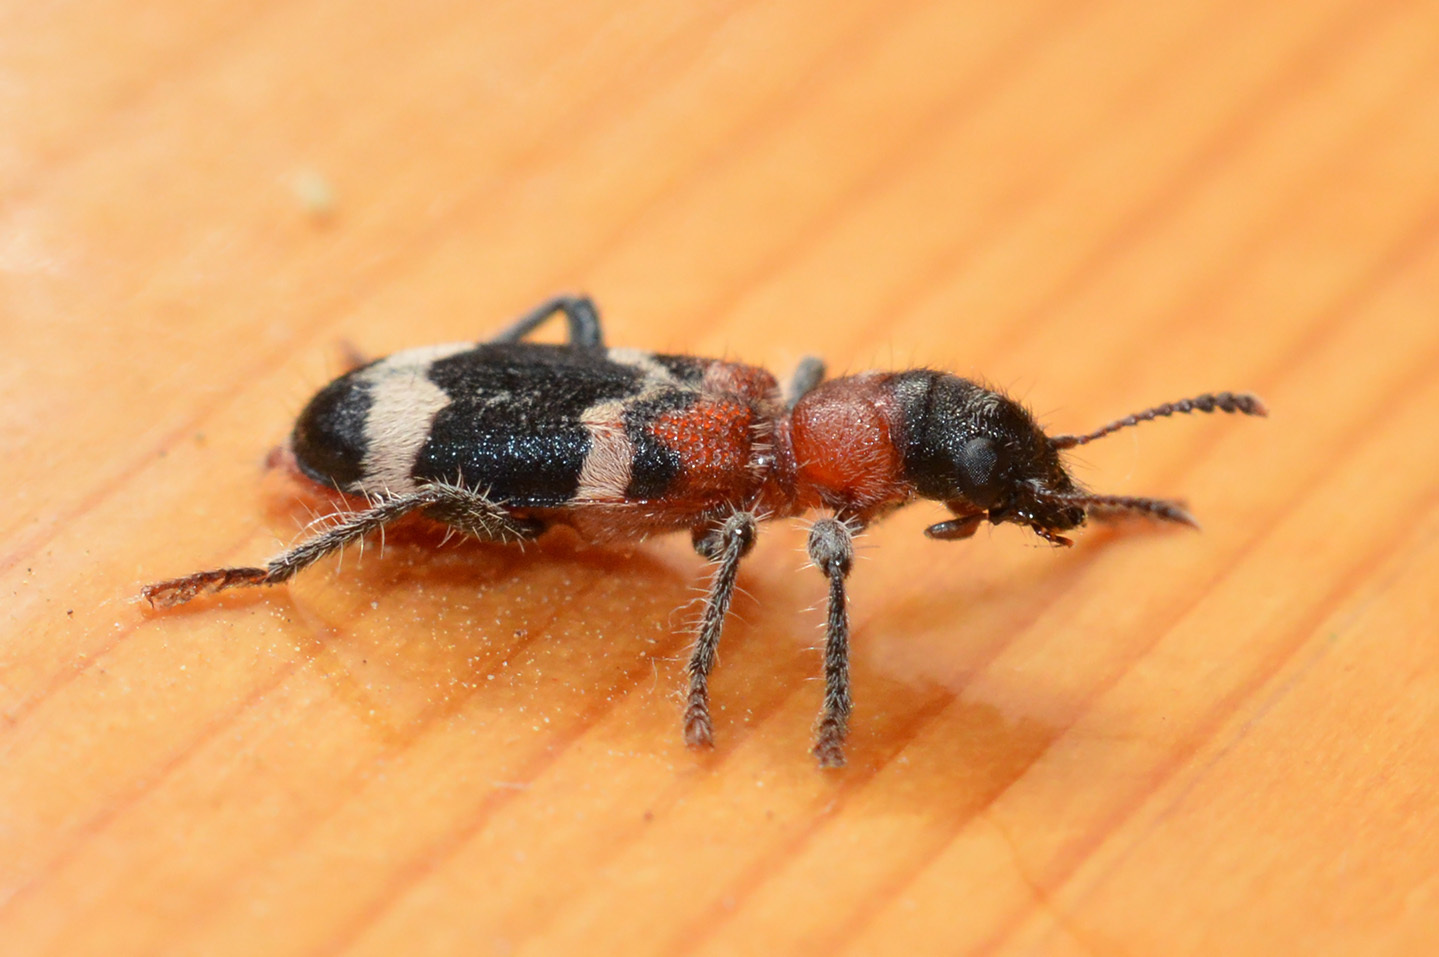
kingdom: Animalia
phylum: Arthropoda
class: Insecta
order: Coleoptera
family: Cleridae
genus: Thanasimus
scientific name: Thanasimus formicarius
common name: Ant beetle
